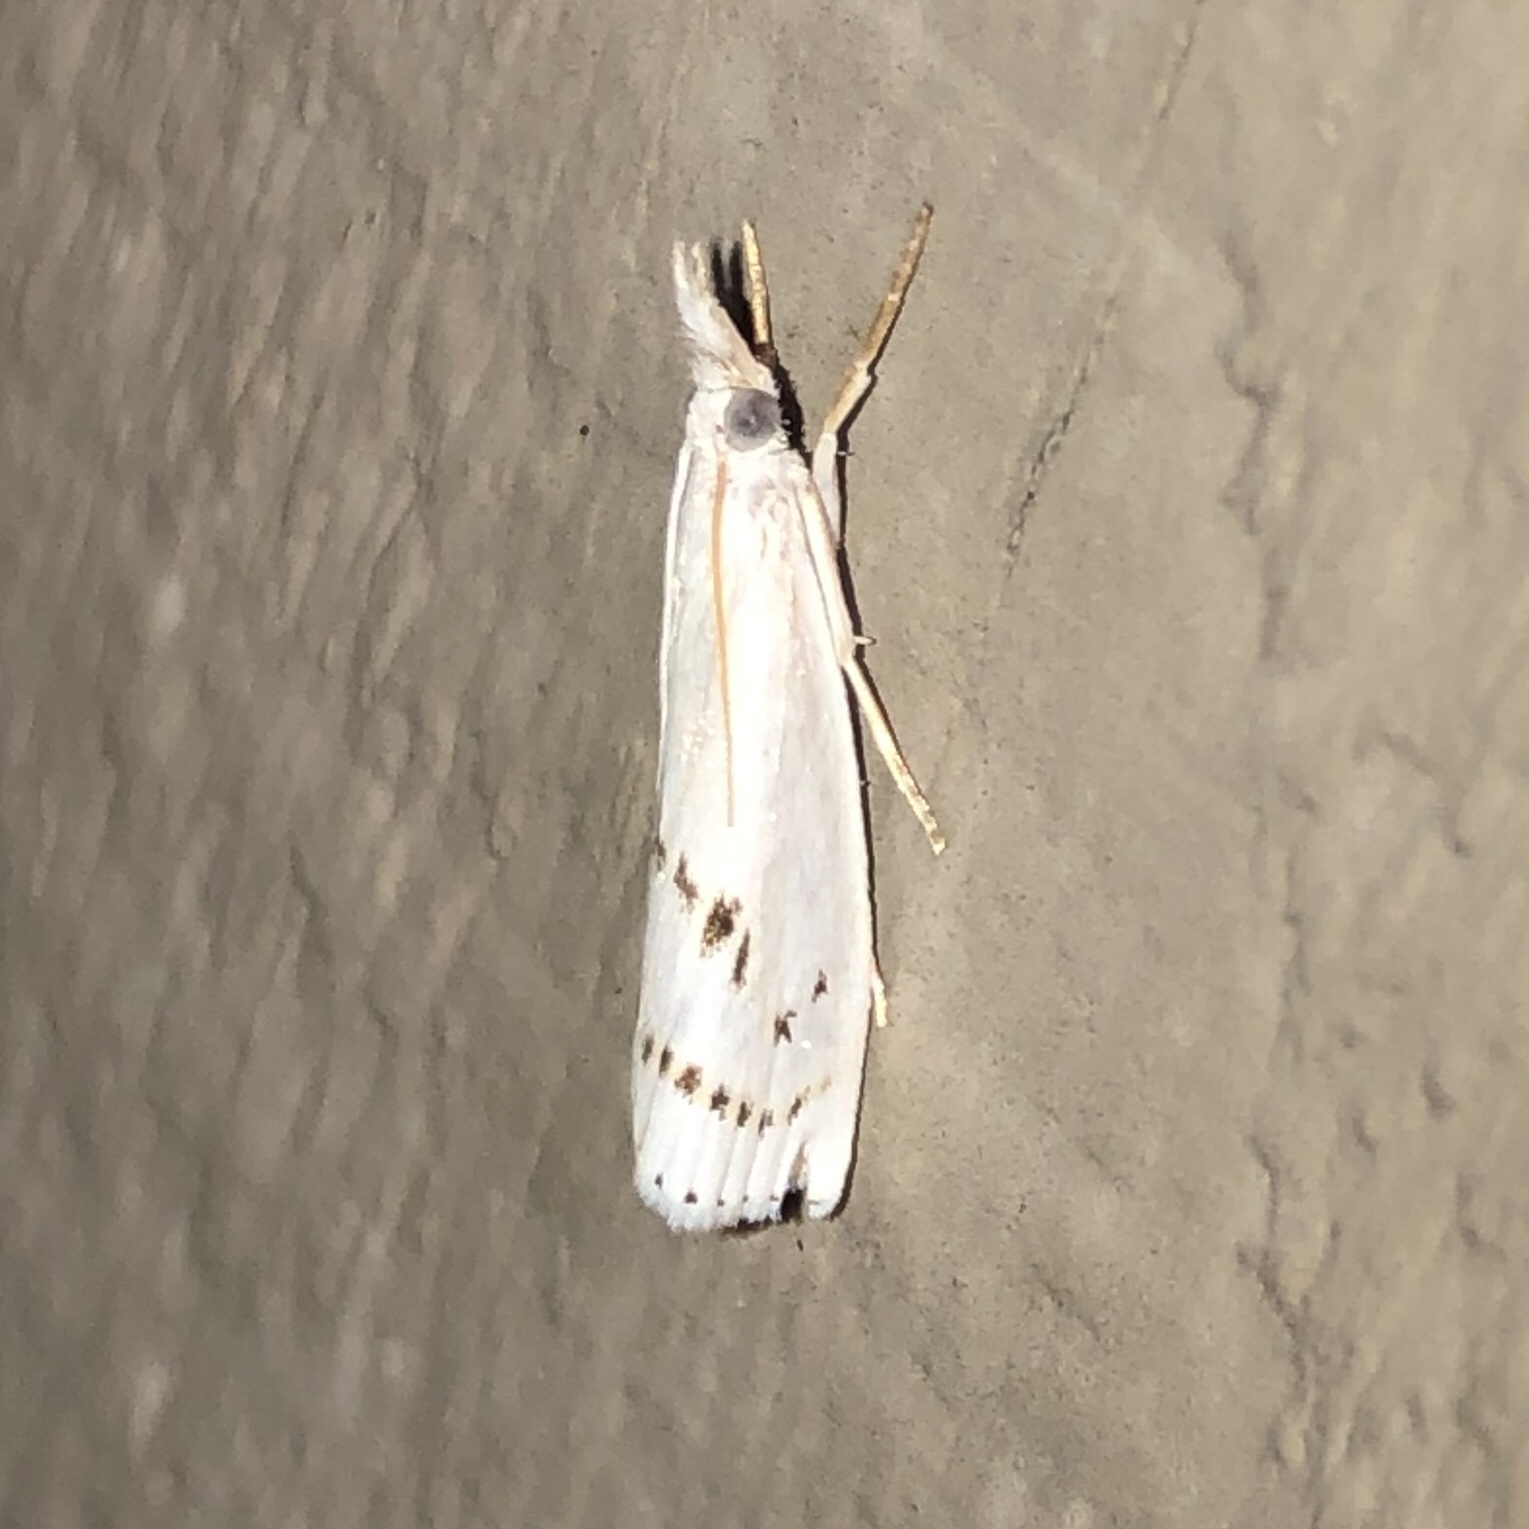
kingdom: Animalia
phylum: Arthropoda
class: Insecta
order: Lepidoptera
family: Crambidae
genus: Crambus
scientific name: Crambus Arequipa turbatella
